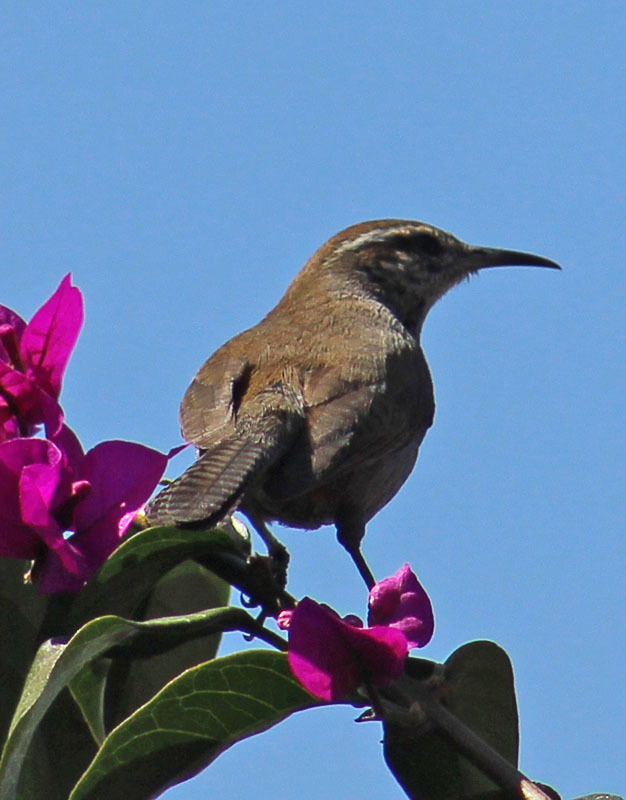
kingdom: Animalia
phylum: Chordata
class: Aves
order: Passeriformes
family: Troglodytidae
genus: Thryomanes
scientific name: Thryomanes bewickii
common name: Bewick's wren
